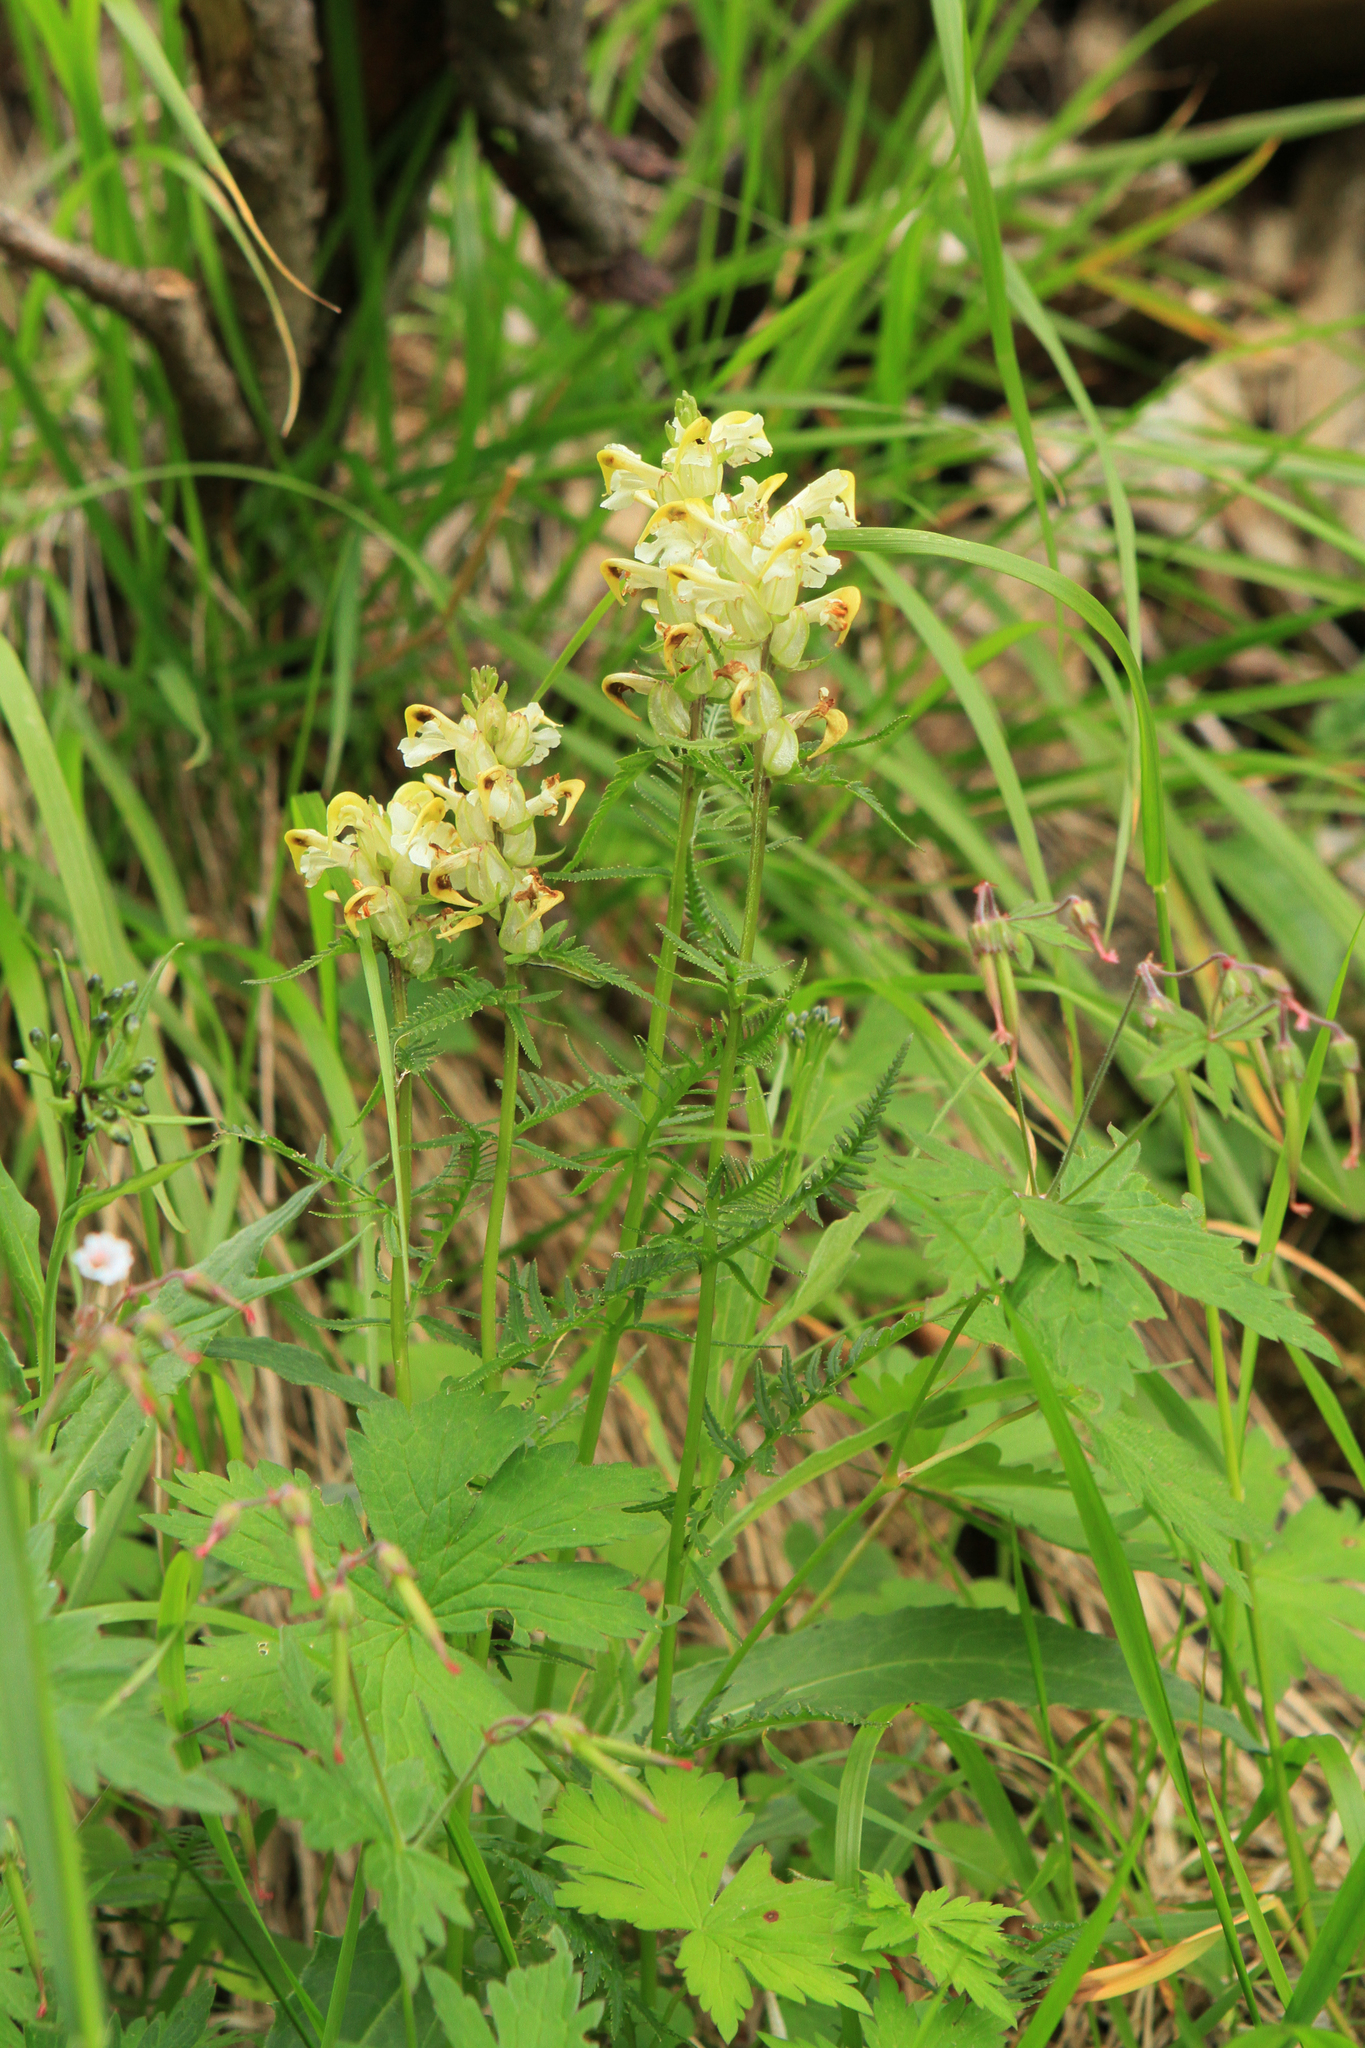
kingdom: Plantae
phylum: Tracheophyta
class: Magnoliopsida
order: Lamiales
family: Orobanchaceae
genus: Pedicularis
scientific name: Pedicularis compacta
